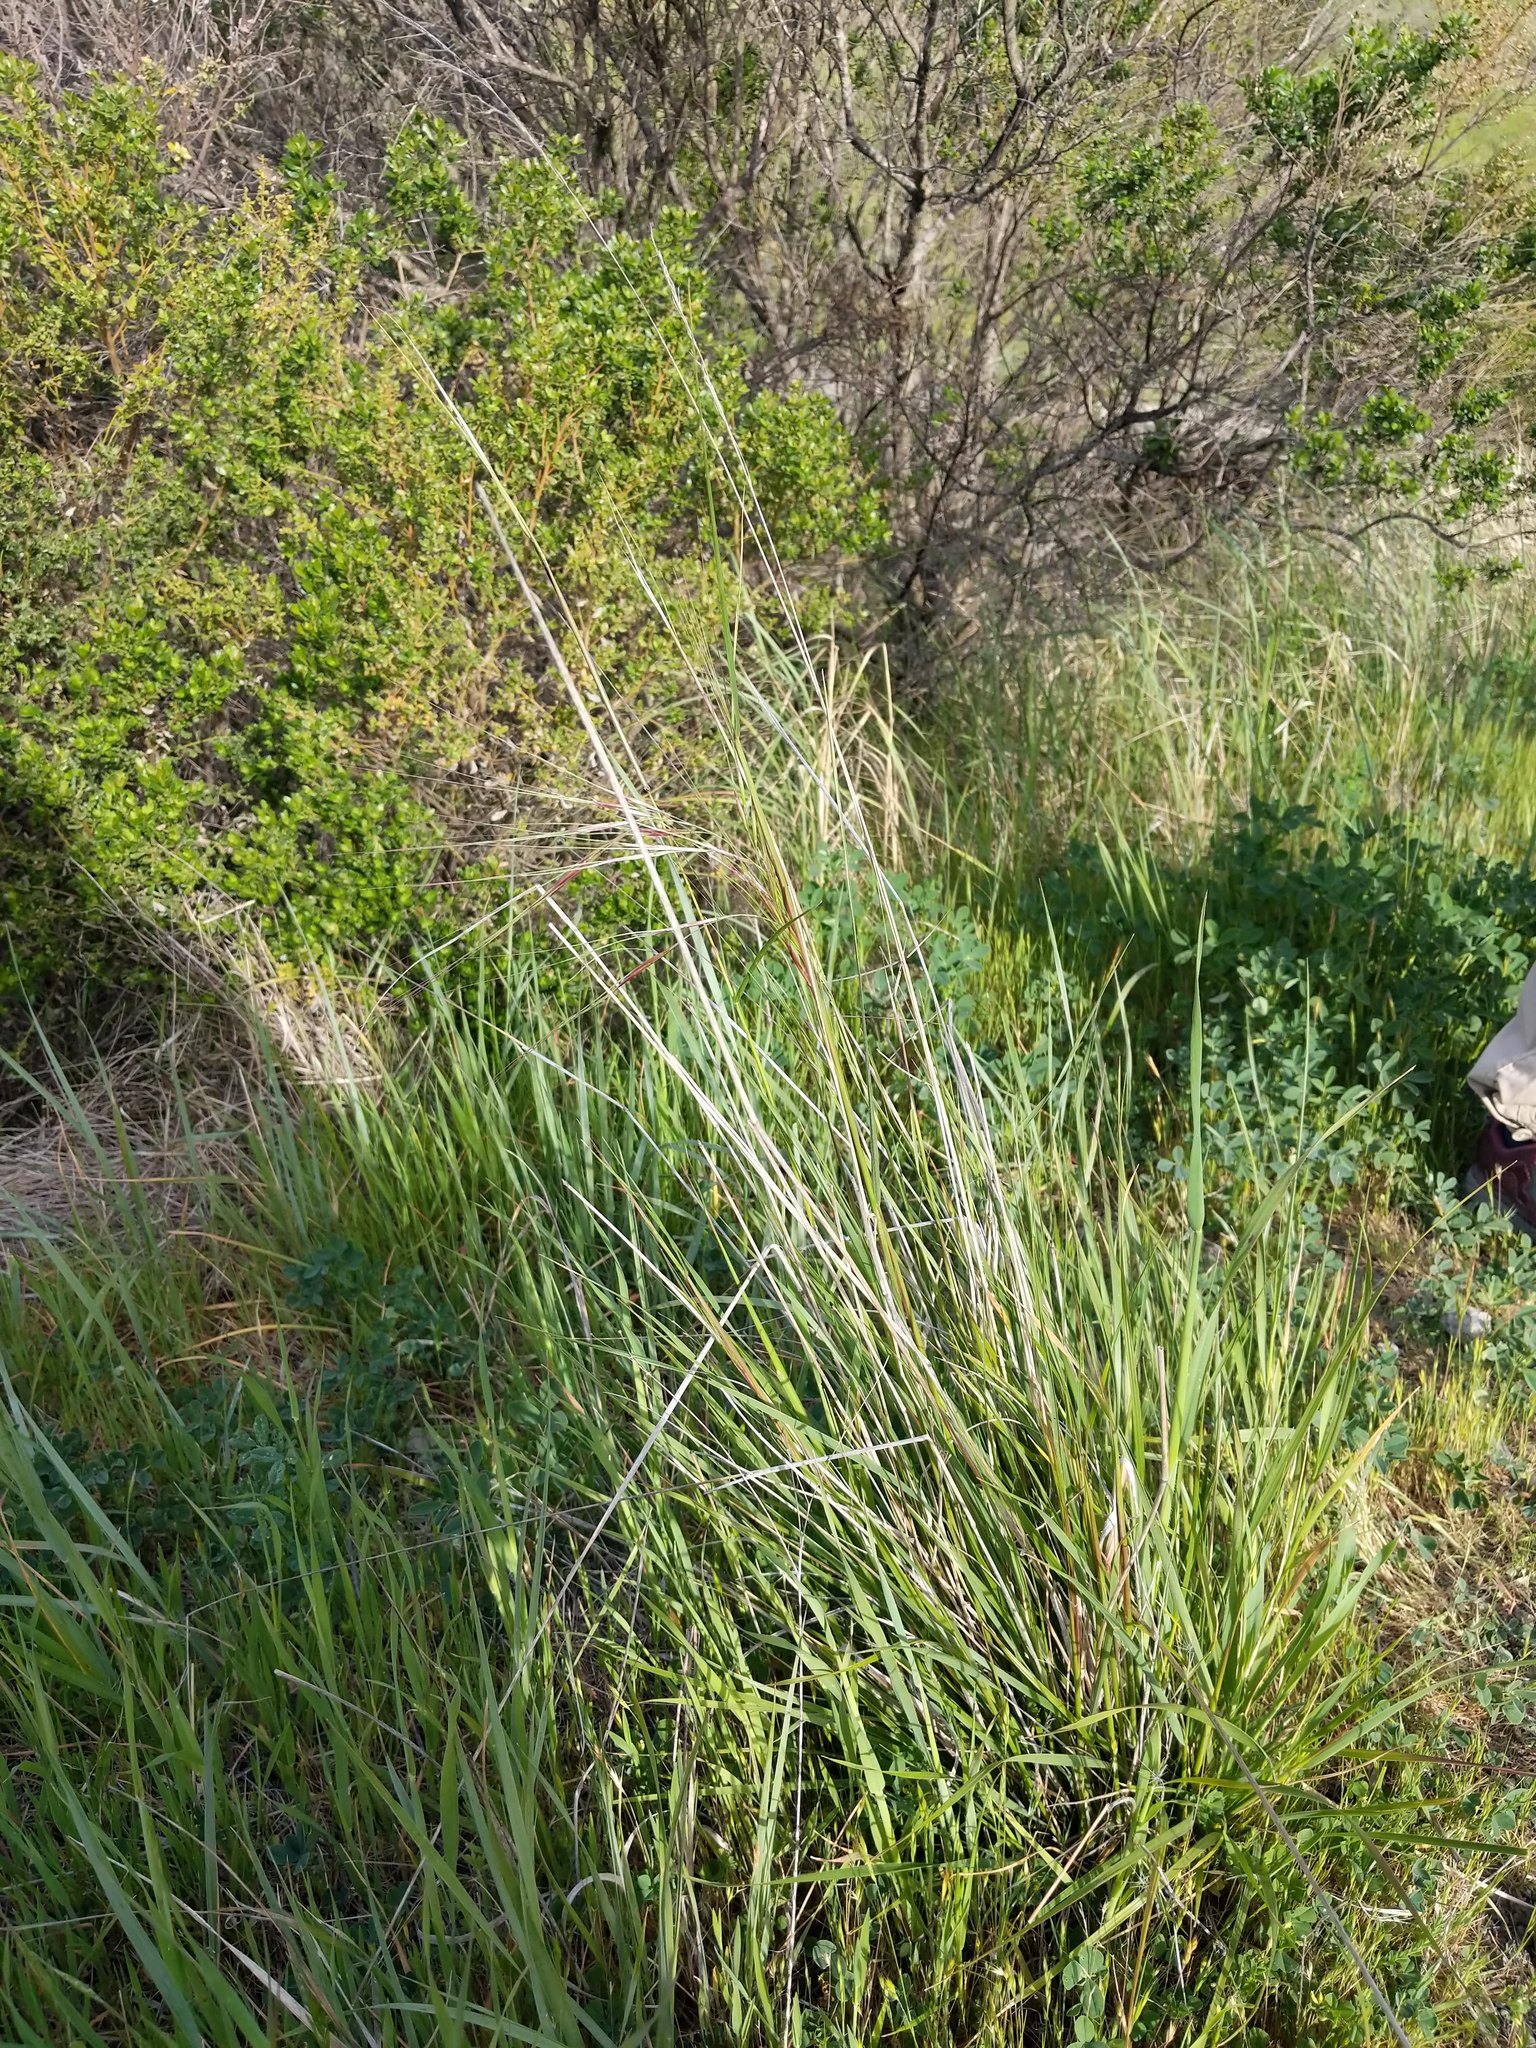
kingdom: Plantae
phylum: Tracheophyta
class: Liliopsida
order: Poales
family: Poaceae
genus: Nassella
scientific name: Nassella pulchra
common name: Purple needlegrass
